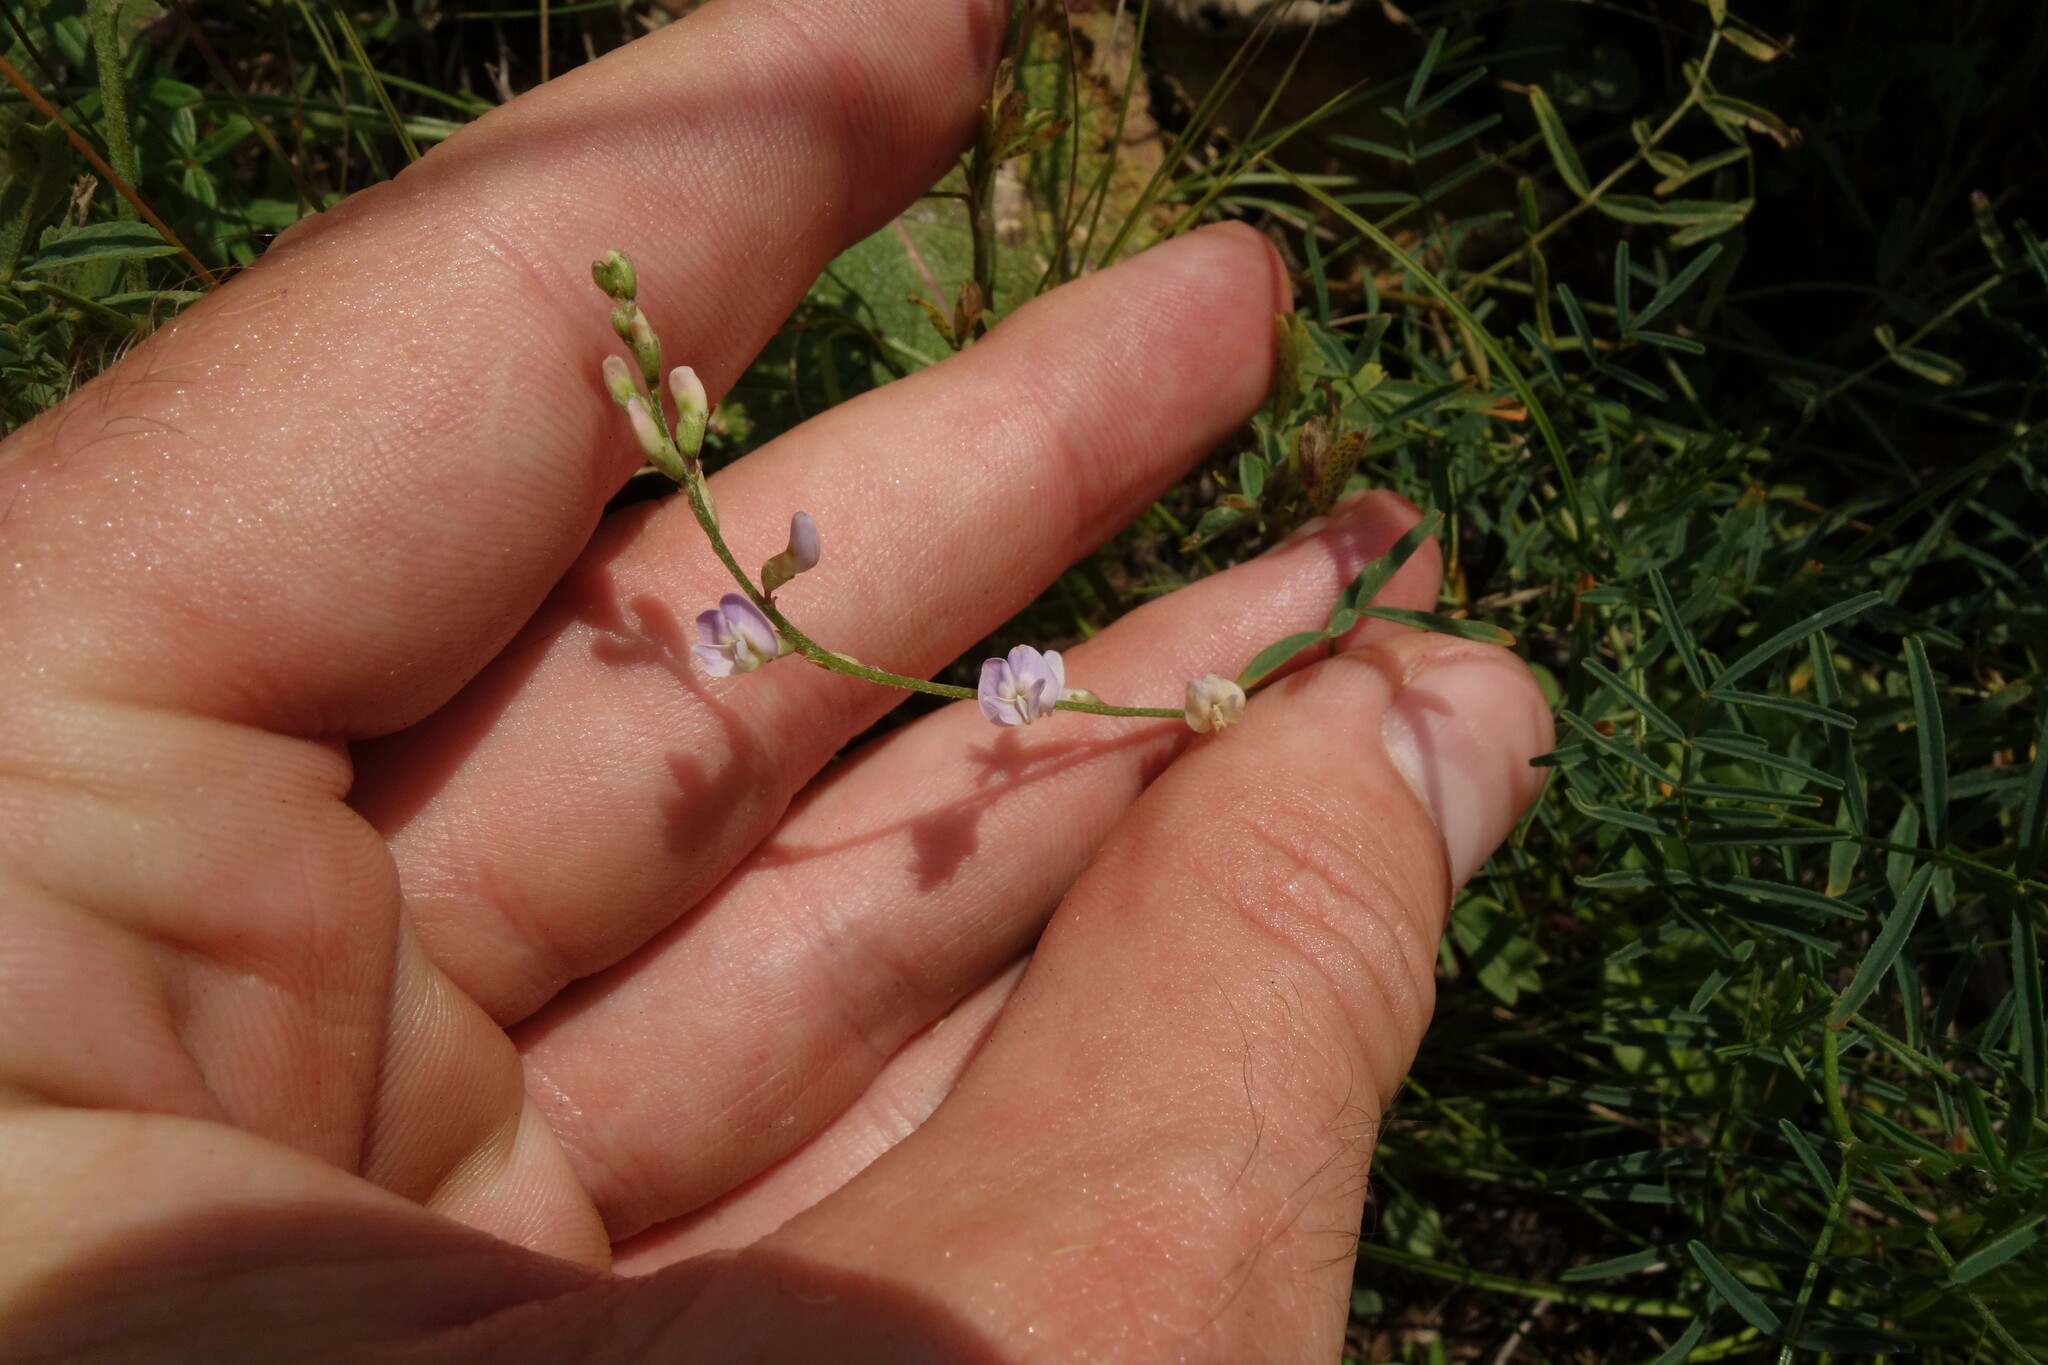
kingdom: Plantae
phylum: Tracheophyta
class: Magnoliopsida
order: Fabales
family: Fabaceae
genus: Astragalus
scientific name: Astragalus austriacus
